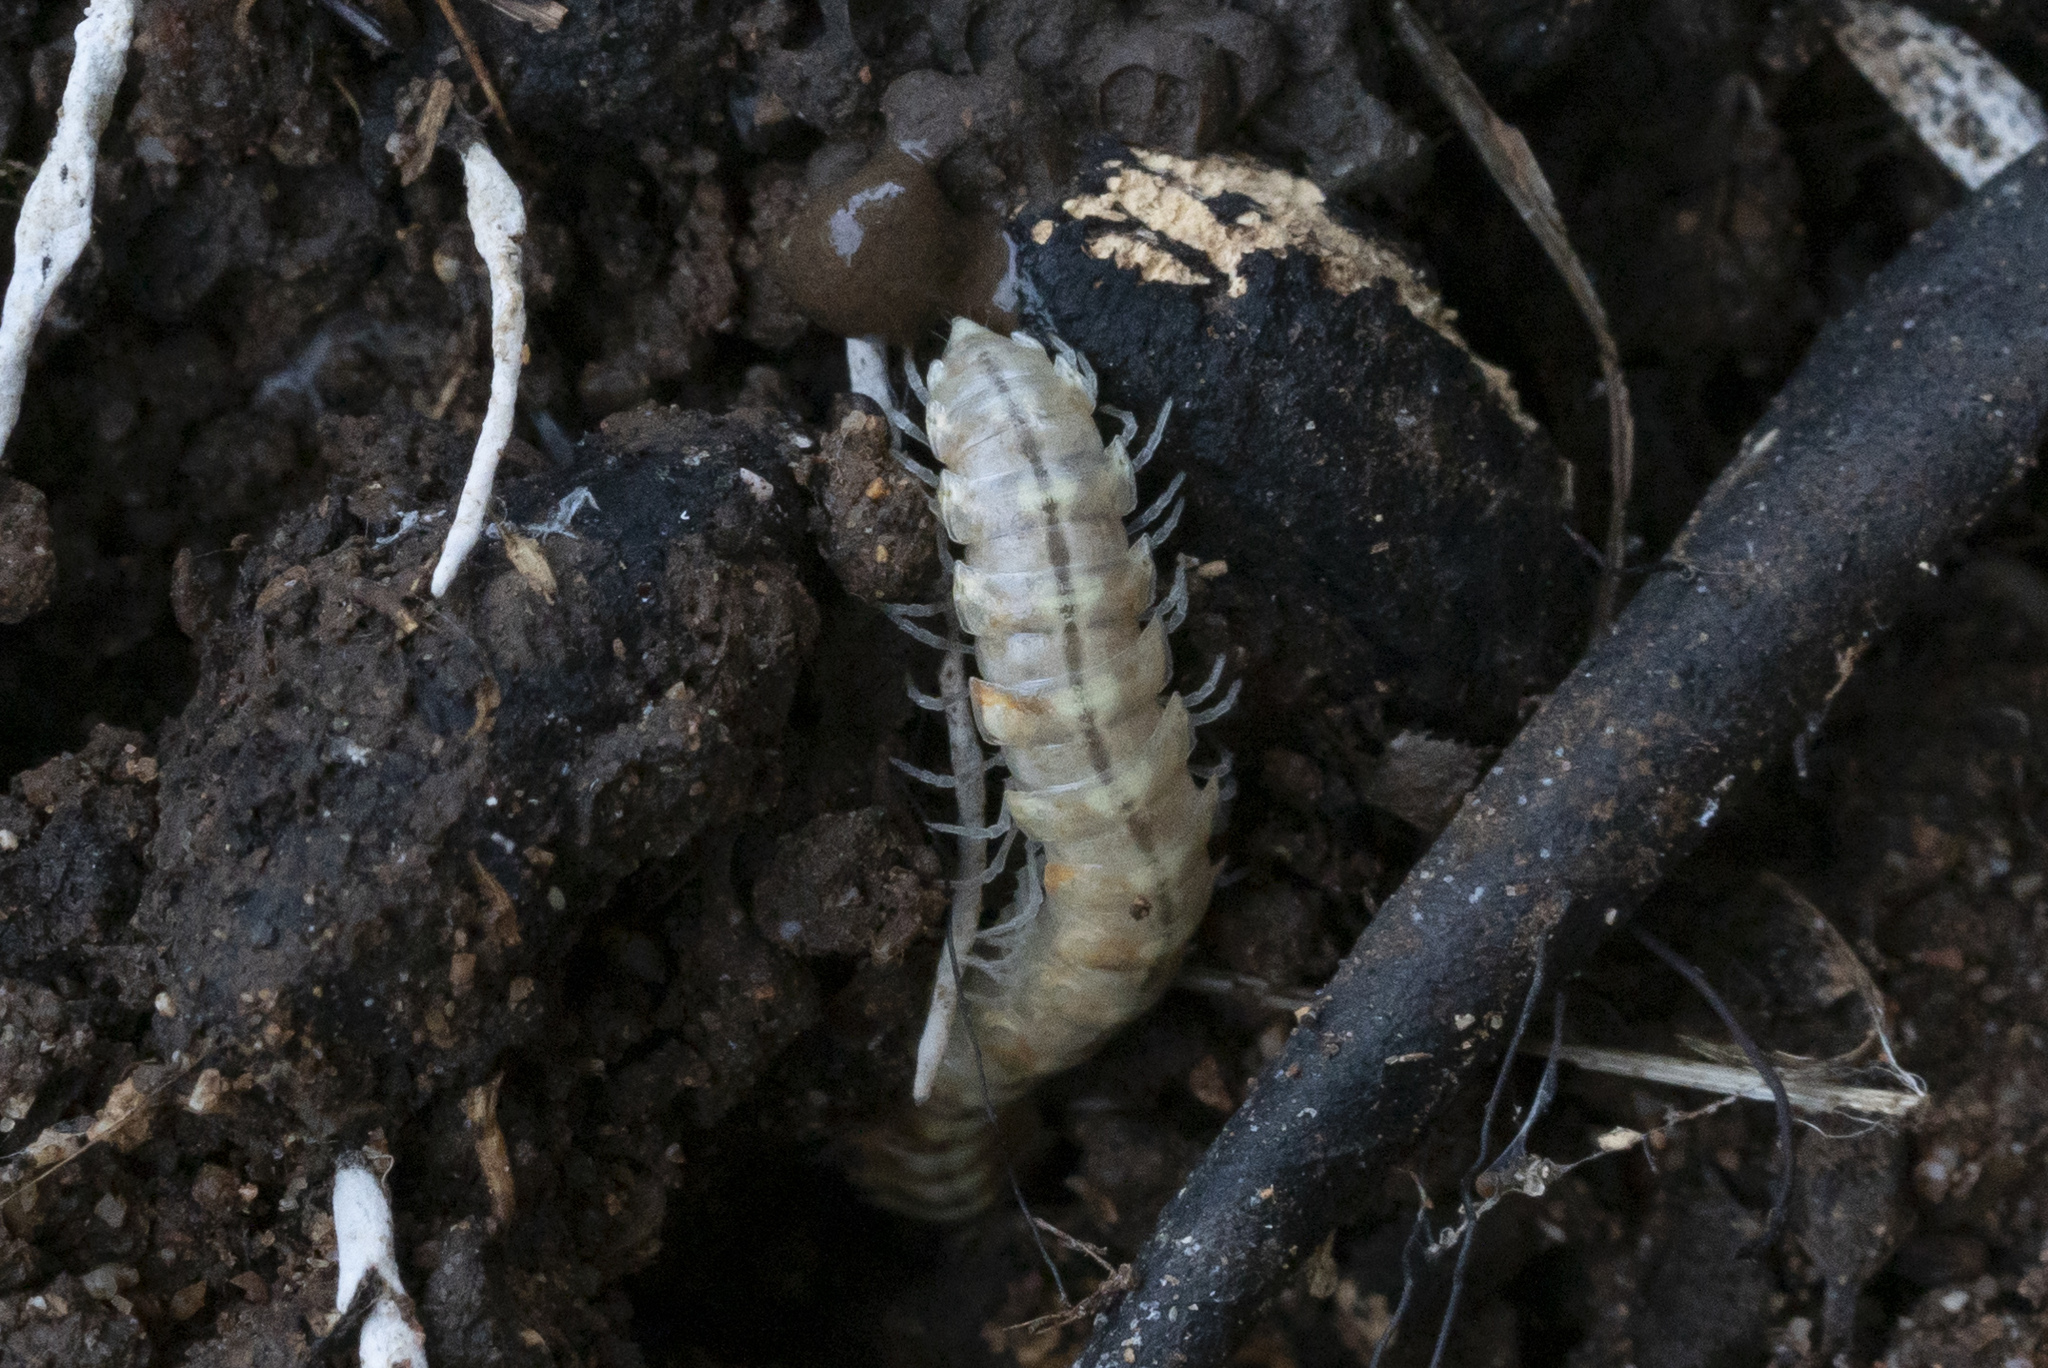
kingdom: Animalia
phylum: Arthropoda
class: Diplopoda
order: Polydesmida
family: Xystodesmidae
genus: Melaphe
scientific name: Melaphe vestita
